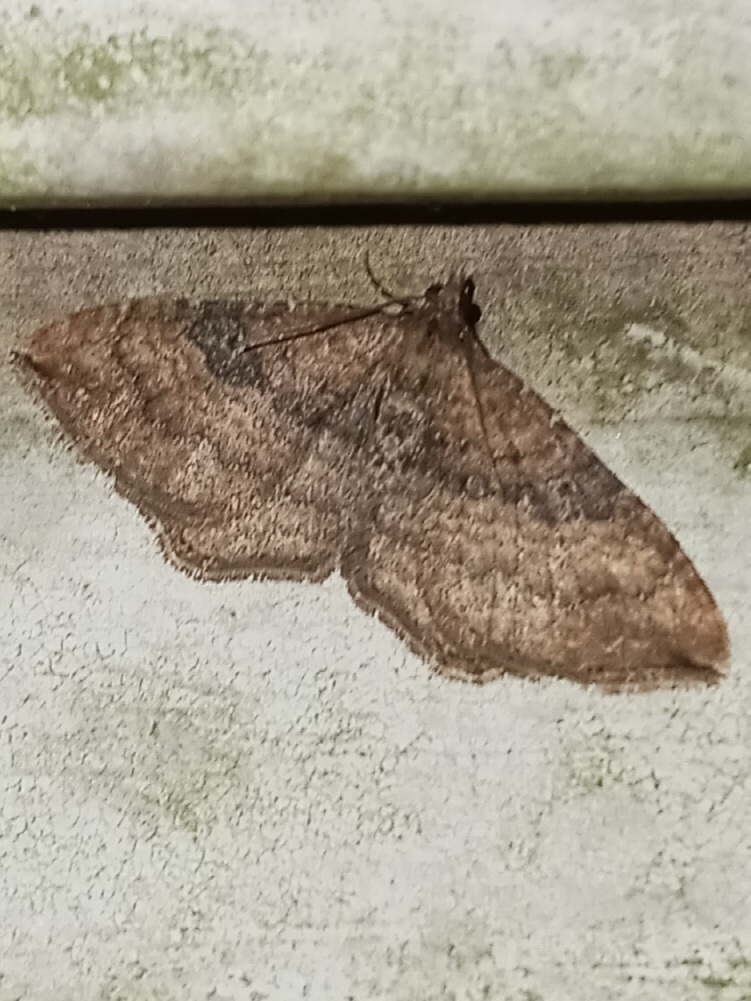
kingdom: Animalia
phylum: Arthropoda
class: Insecta
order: Lepidoptera
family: Geometridae
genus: Orthonama
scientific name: Orthonama obstipata
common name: The gem
